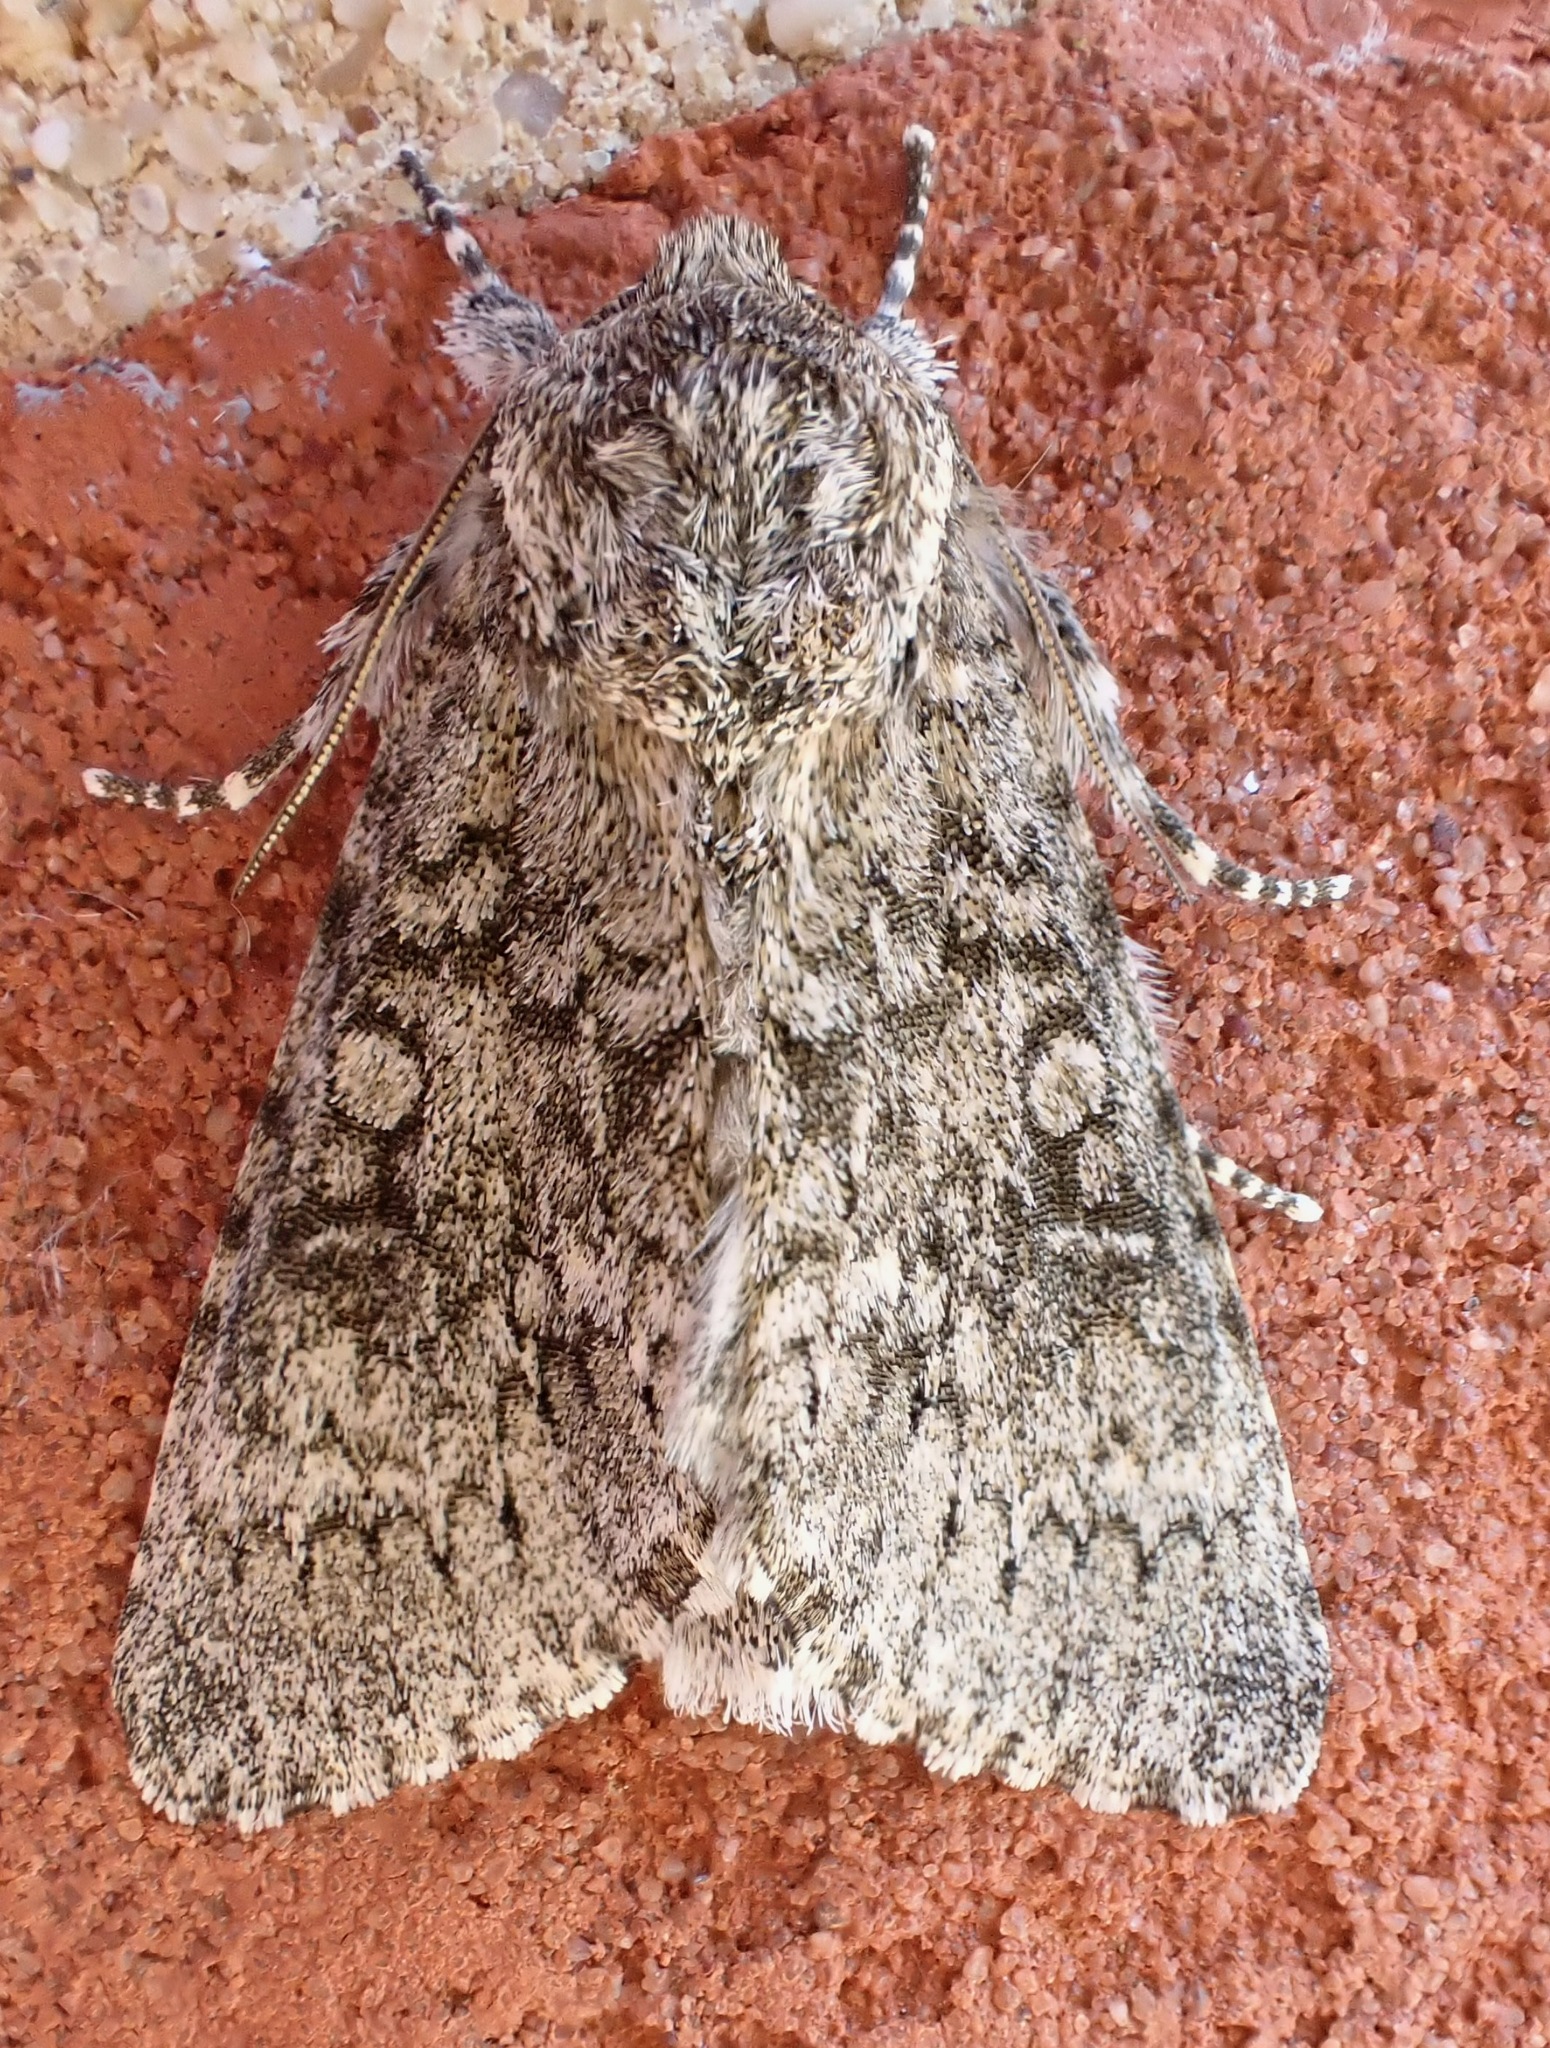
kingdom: Animalia
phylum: Arthropoda
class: Insecta
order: Lepidoptera
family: Noctuidae
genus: Acronicta
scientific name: Acronicta aceris
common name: Sycamore
